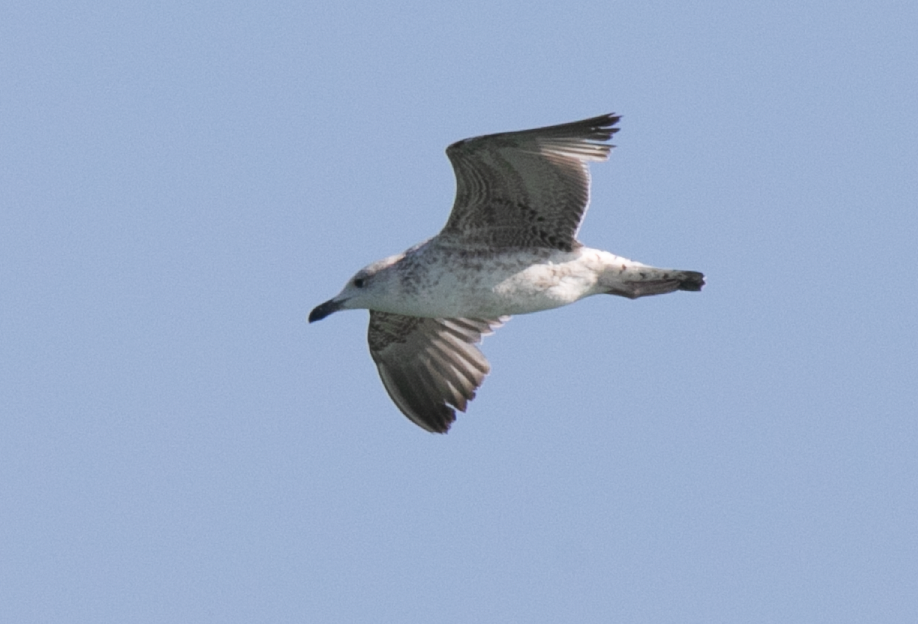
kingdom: Animalia
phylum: Chordata
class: Aves
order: Charadriiformes
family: Laridae
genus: Larus
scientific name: Larus michahellis
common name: Yellow-legged gull
